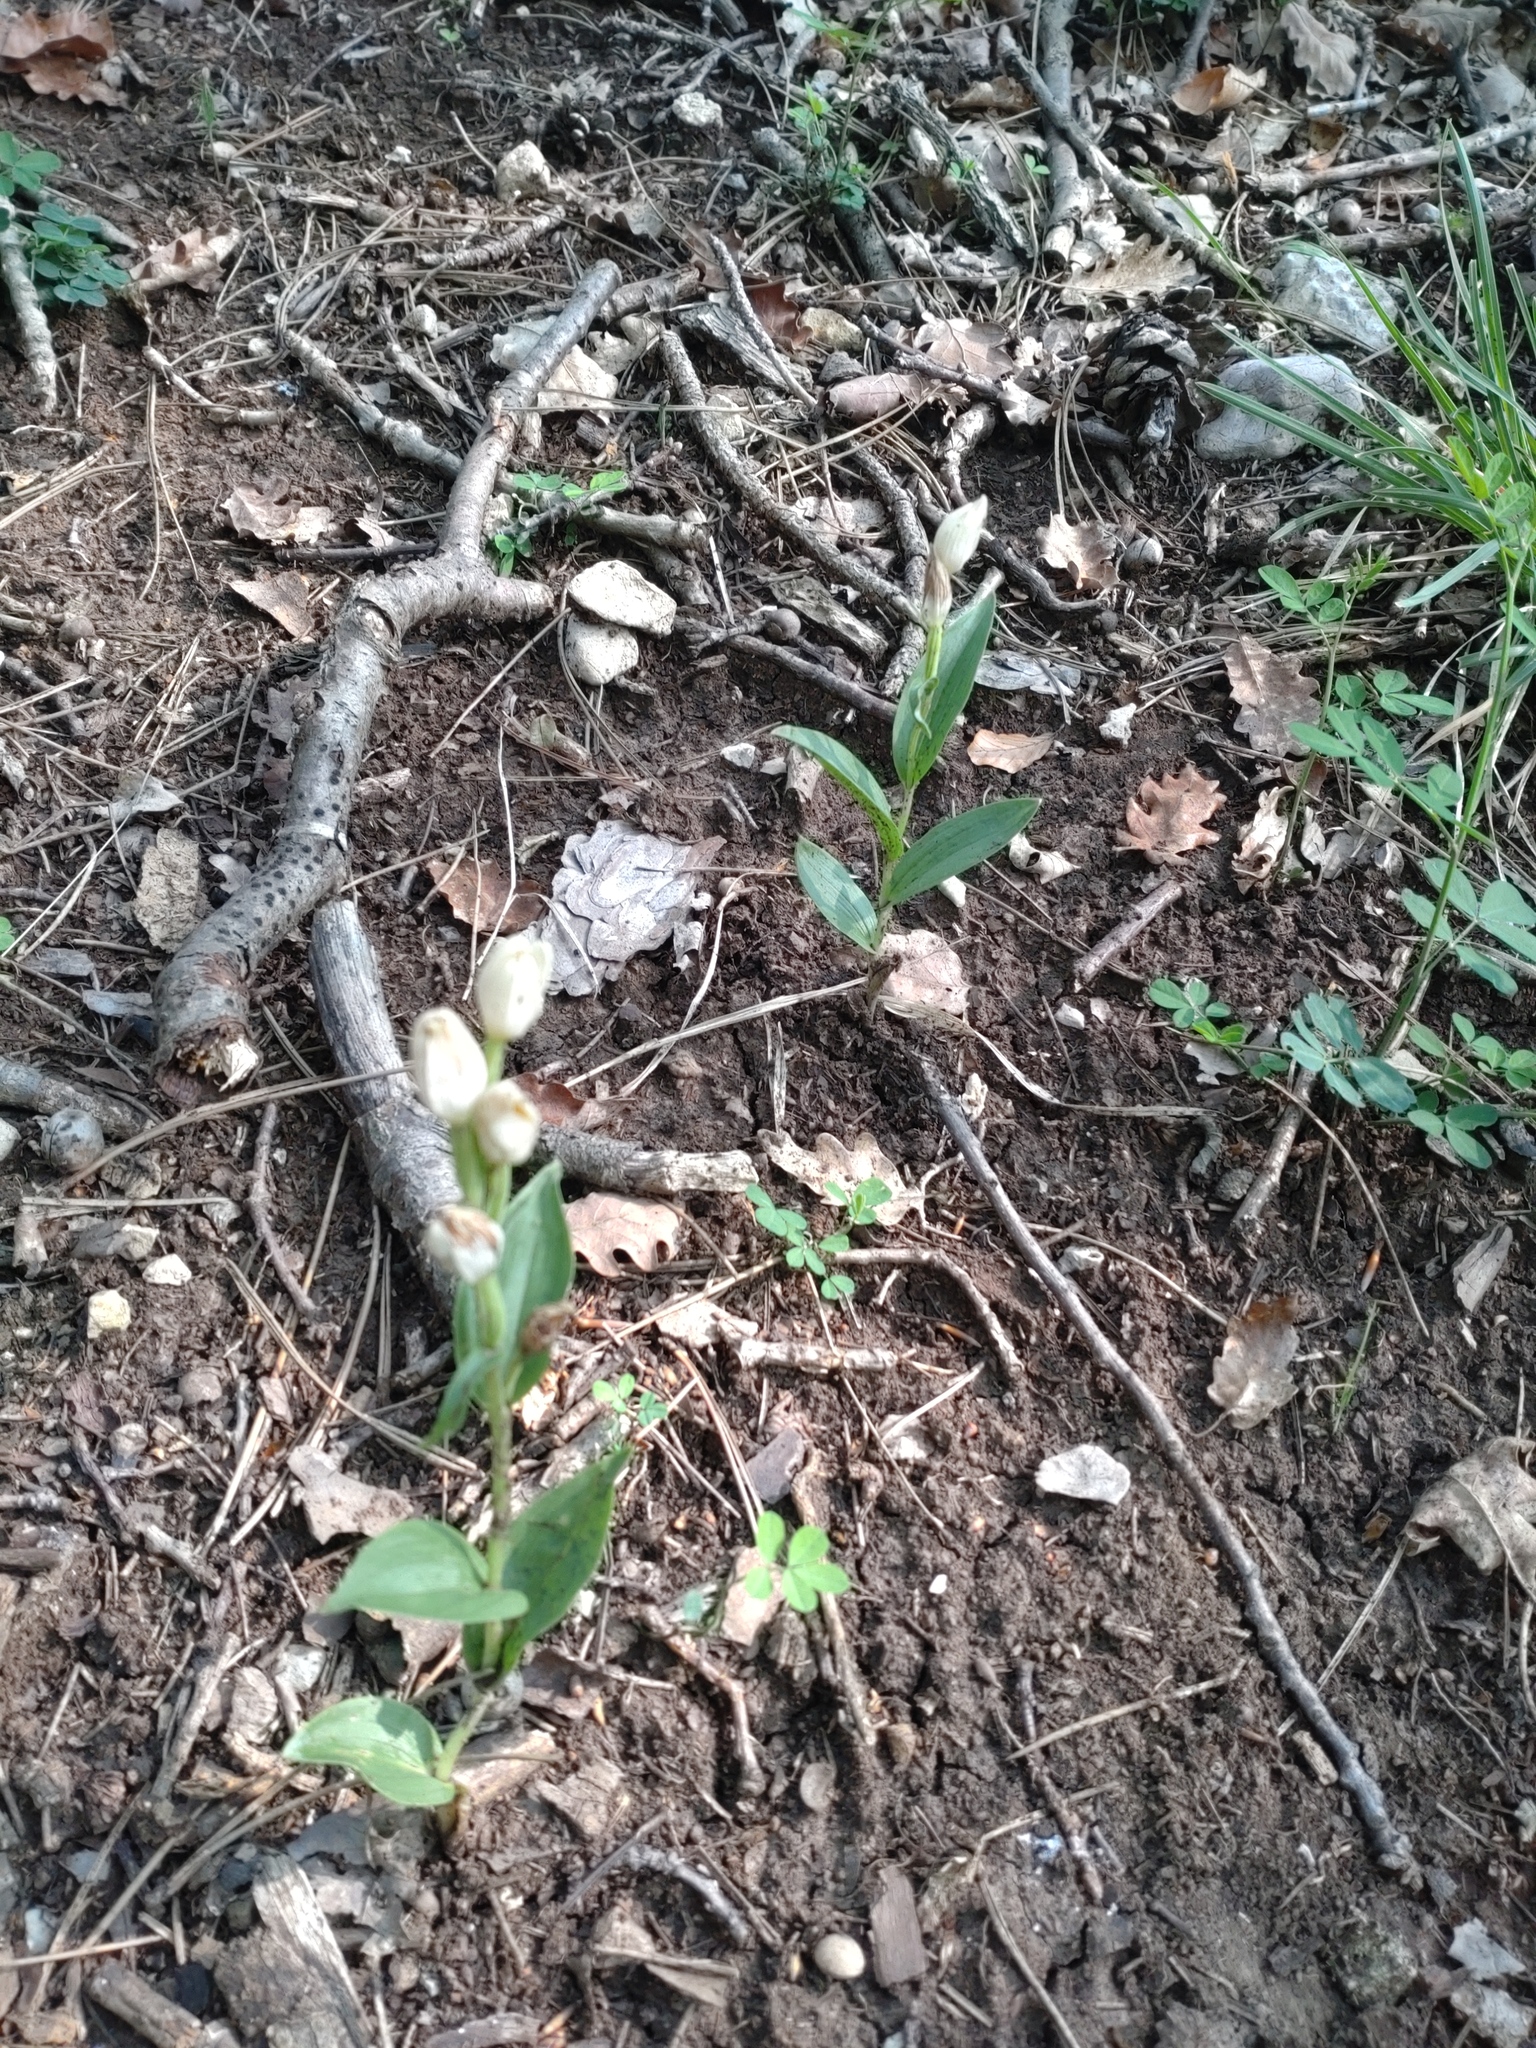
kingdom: Plantae
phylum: Tracheophyta
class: Liliopsida
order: Asparagales
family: Orchidaceae
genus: Cephalanthera
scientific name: Cephalanthera damasonium
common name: White helleborine
